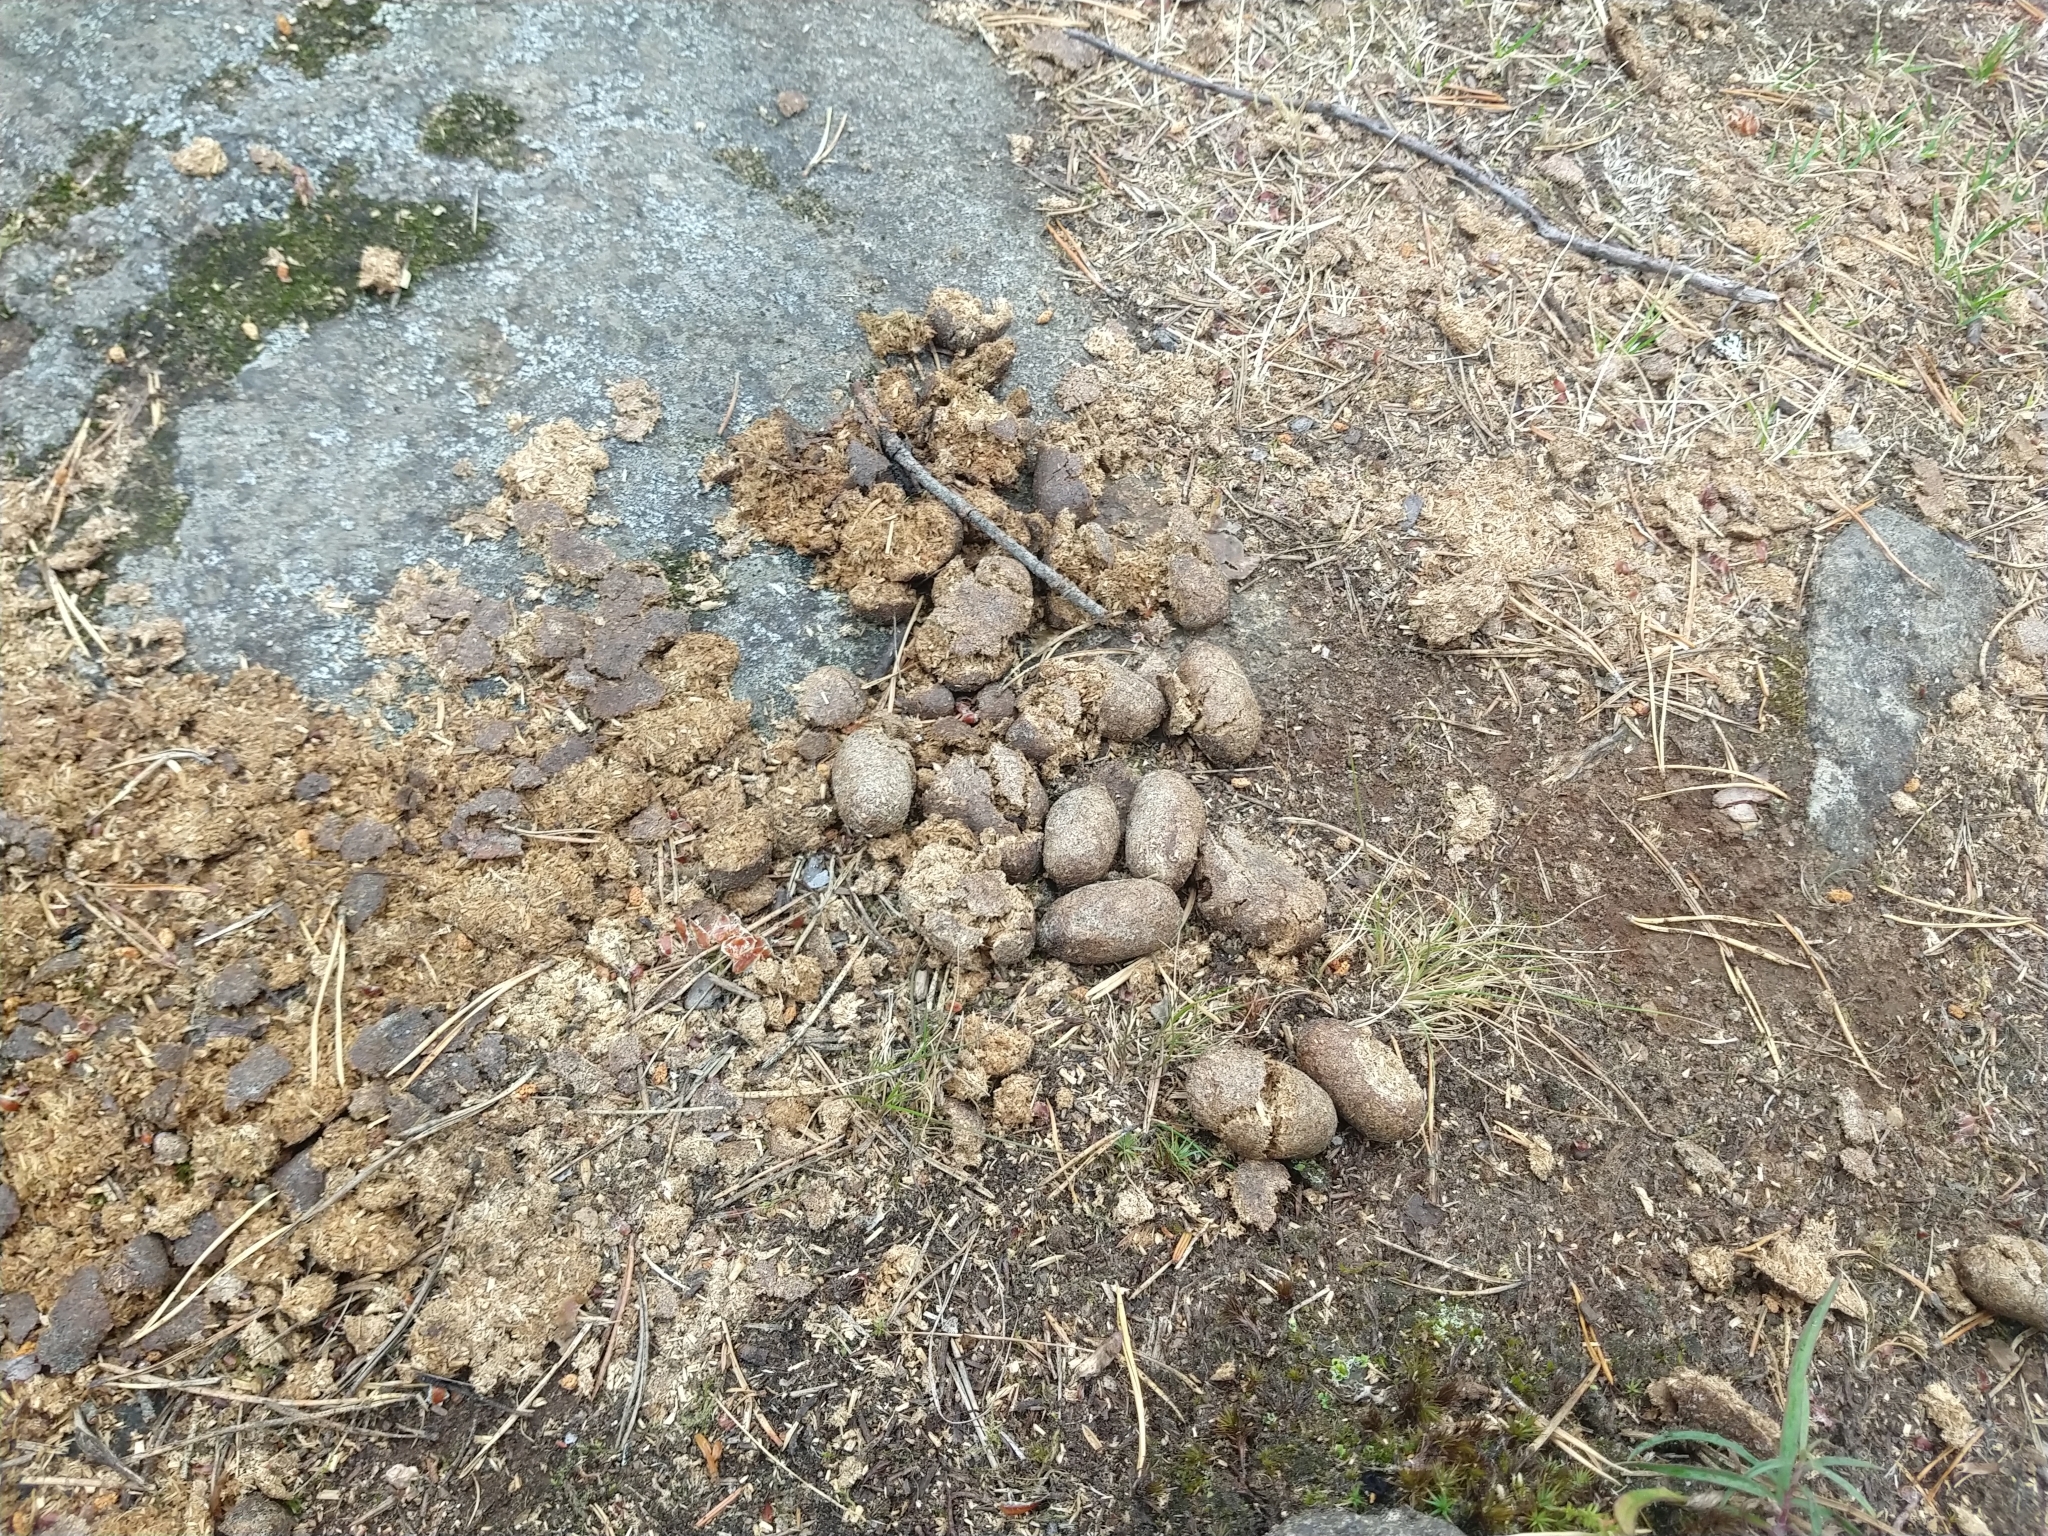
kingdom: Animalia
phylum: Chordata
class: Mammalia
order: Artiodactyla
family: Cervidae
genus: Alces
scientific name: Alces alces
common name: Moose
